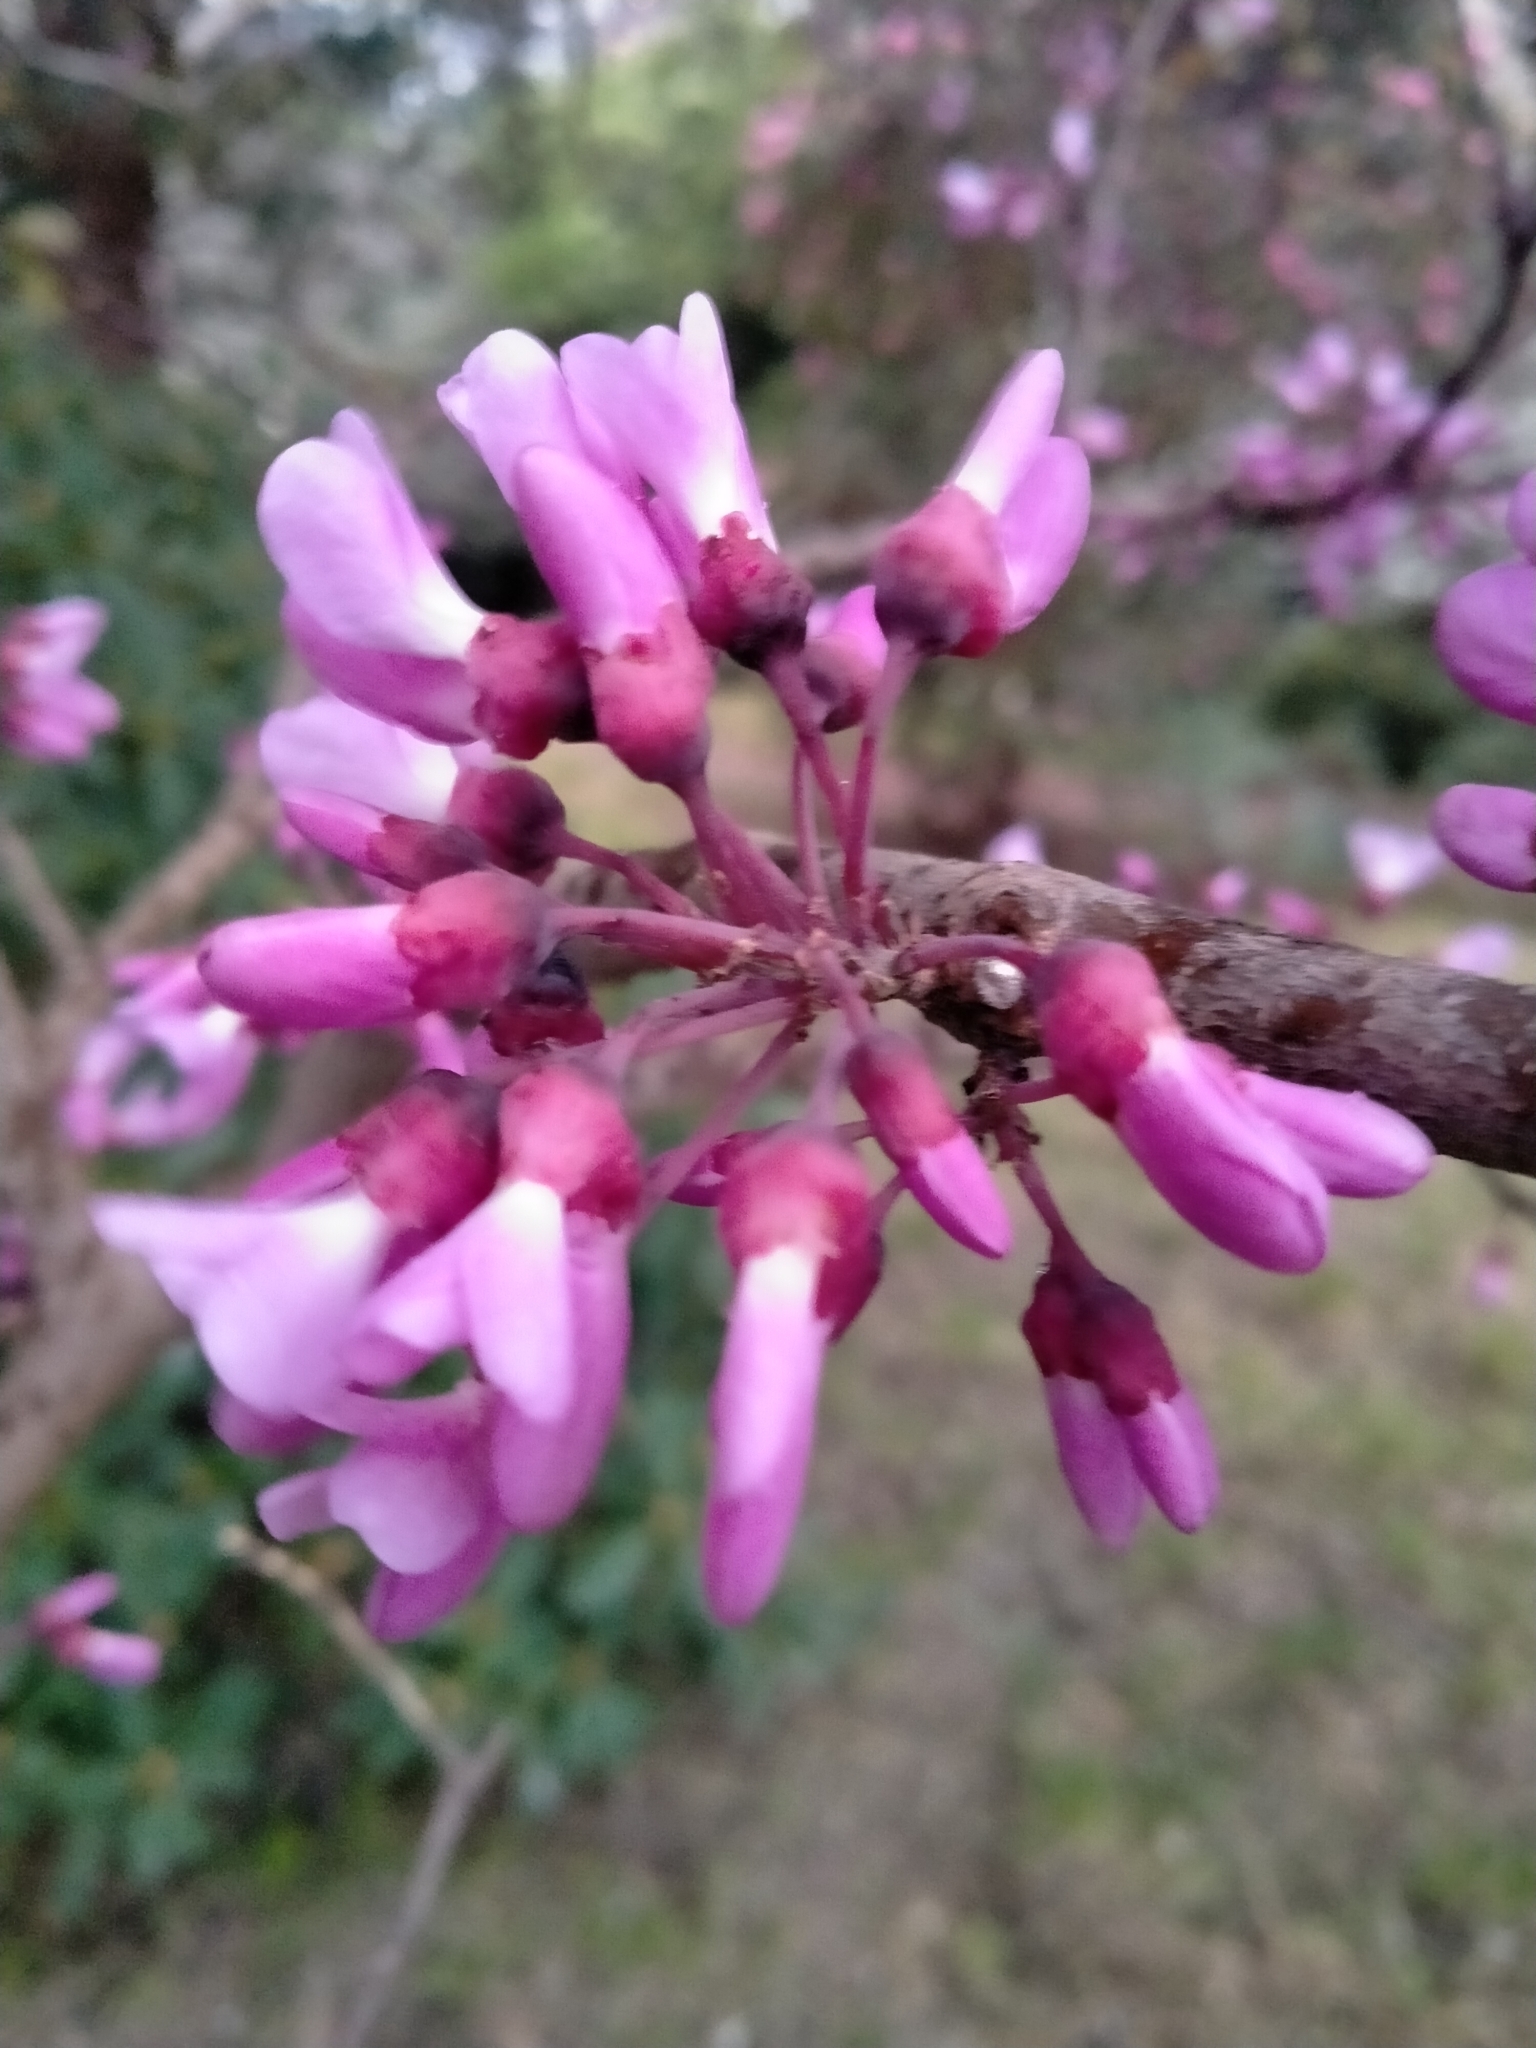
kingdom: Plantae
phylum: Tracheophyta
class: Magnoliopsida
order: Fabales
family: Fabaceae
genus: Cercis
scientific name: Cercis siliquastrum
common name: Judas tree
